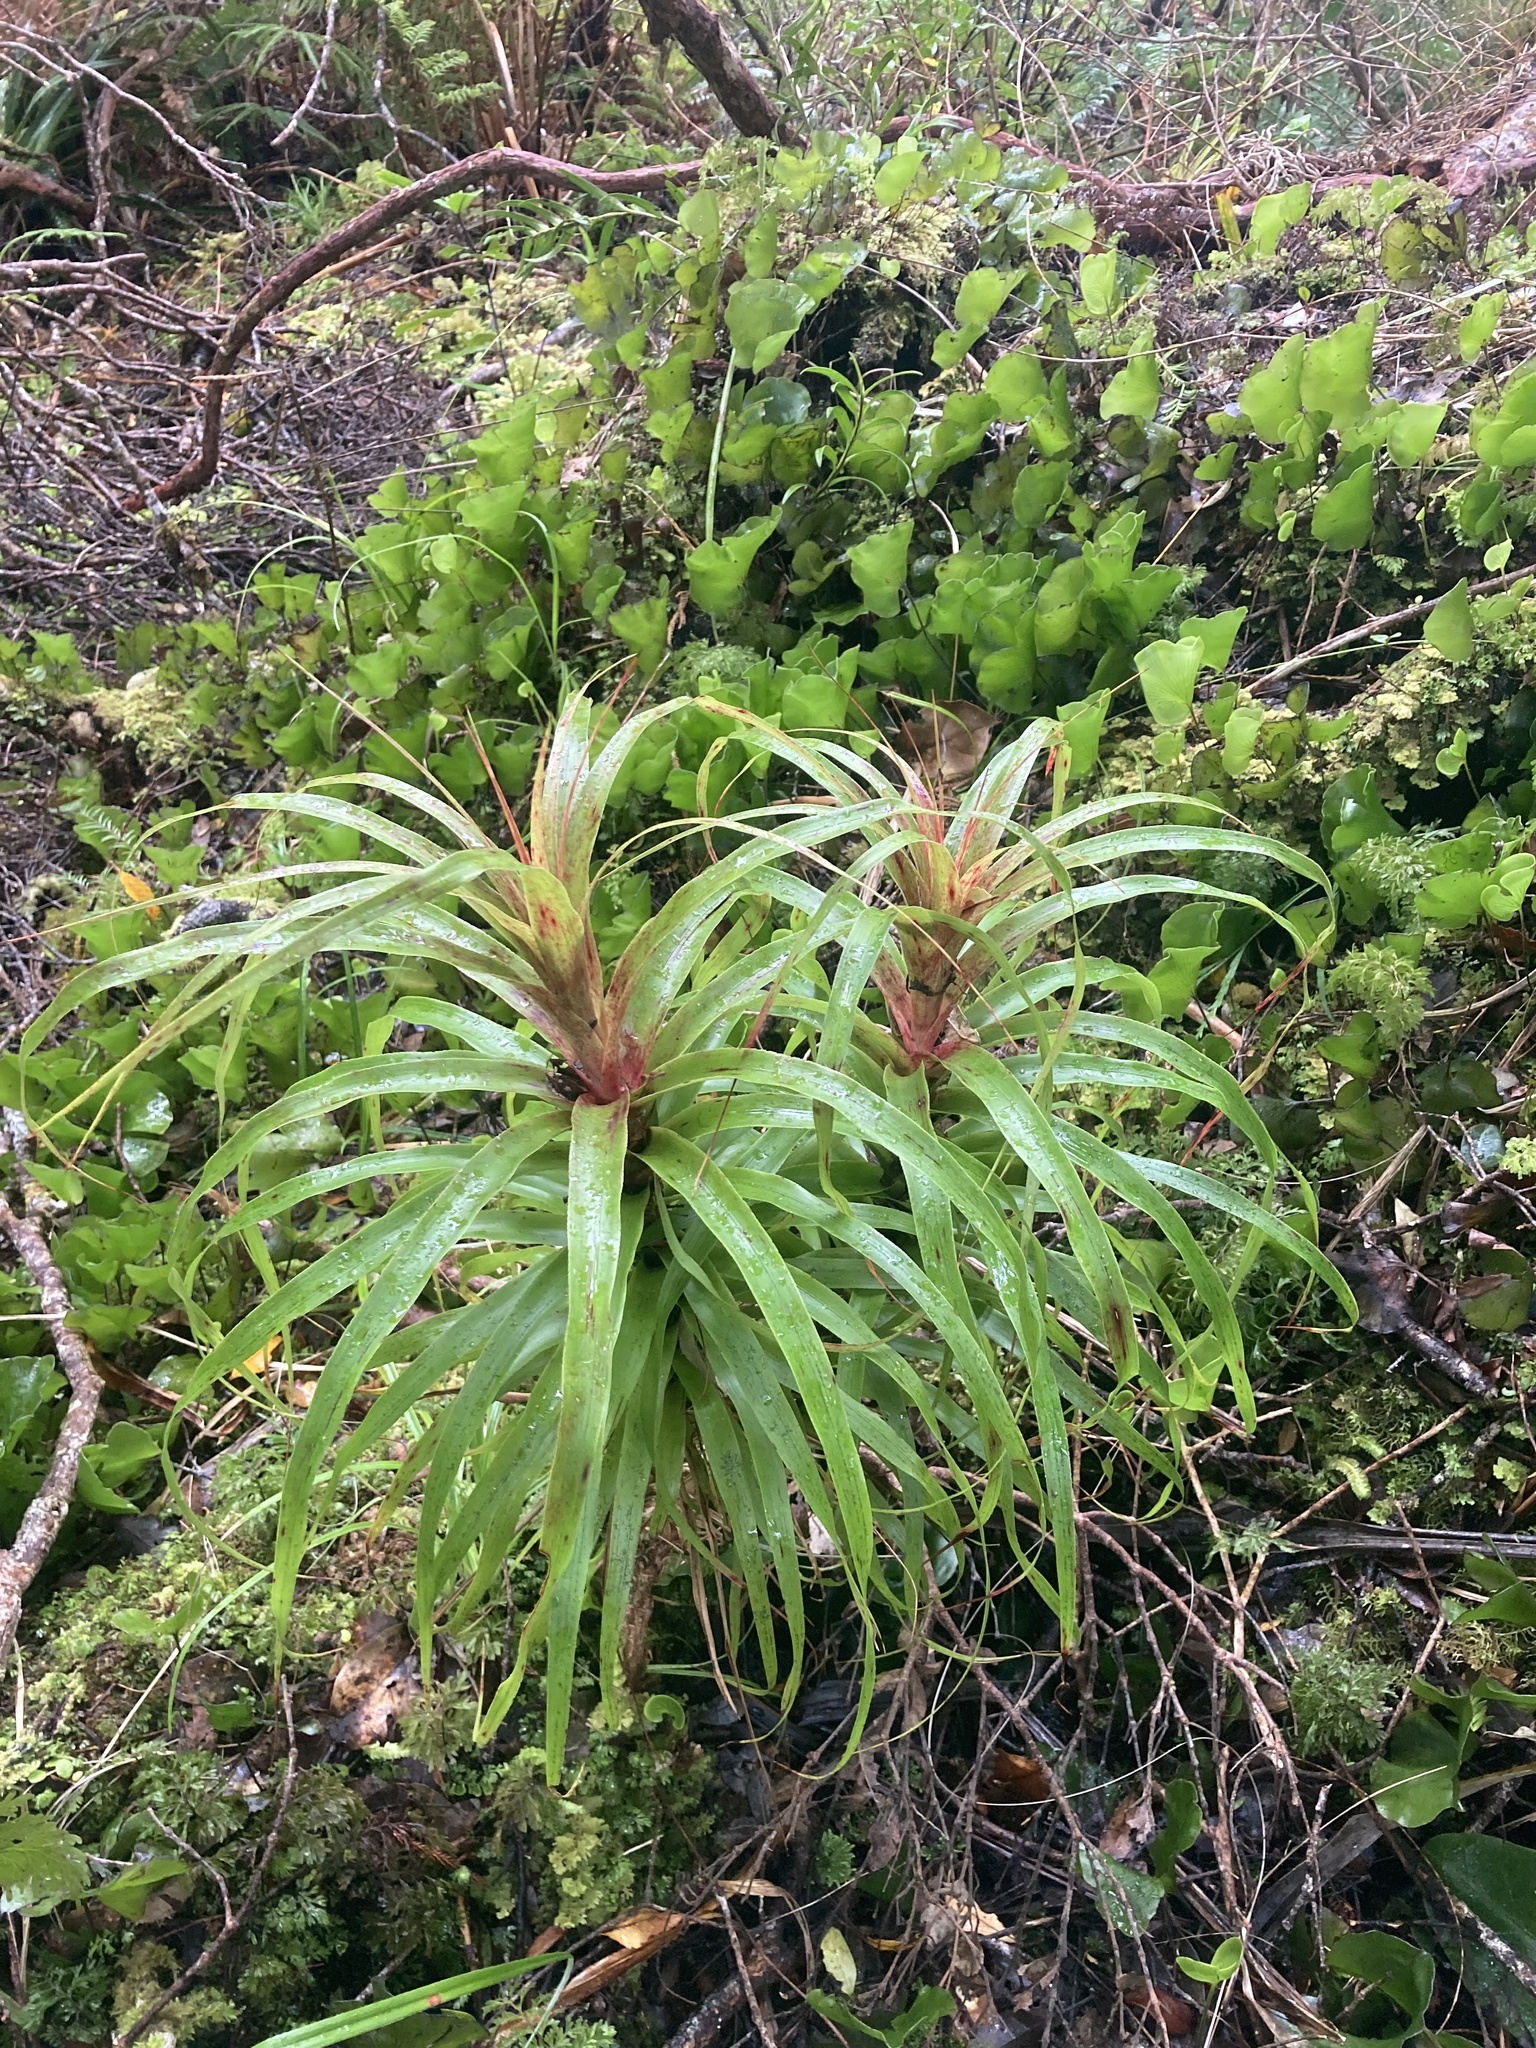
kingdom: Plantae
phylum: Tracheophyta
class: Magnoliopsida
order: Ericales
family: Ericaceae
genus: Dracophyllum
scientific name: Dracophyllum latifolium
